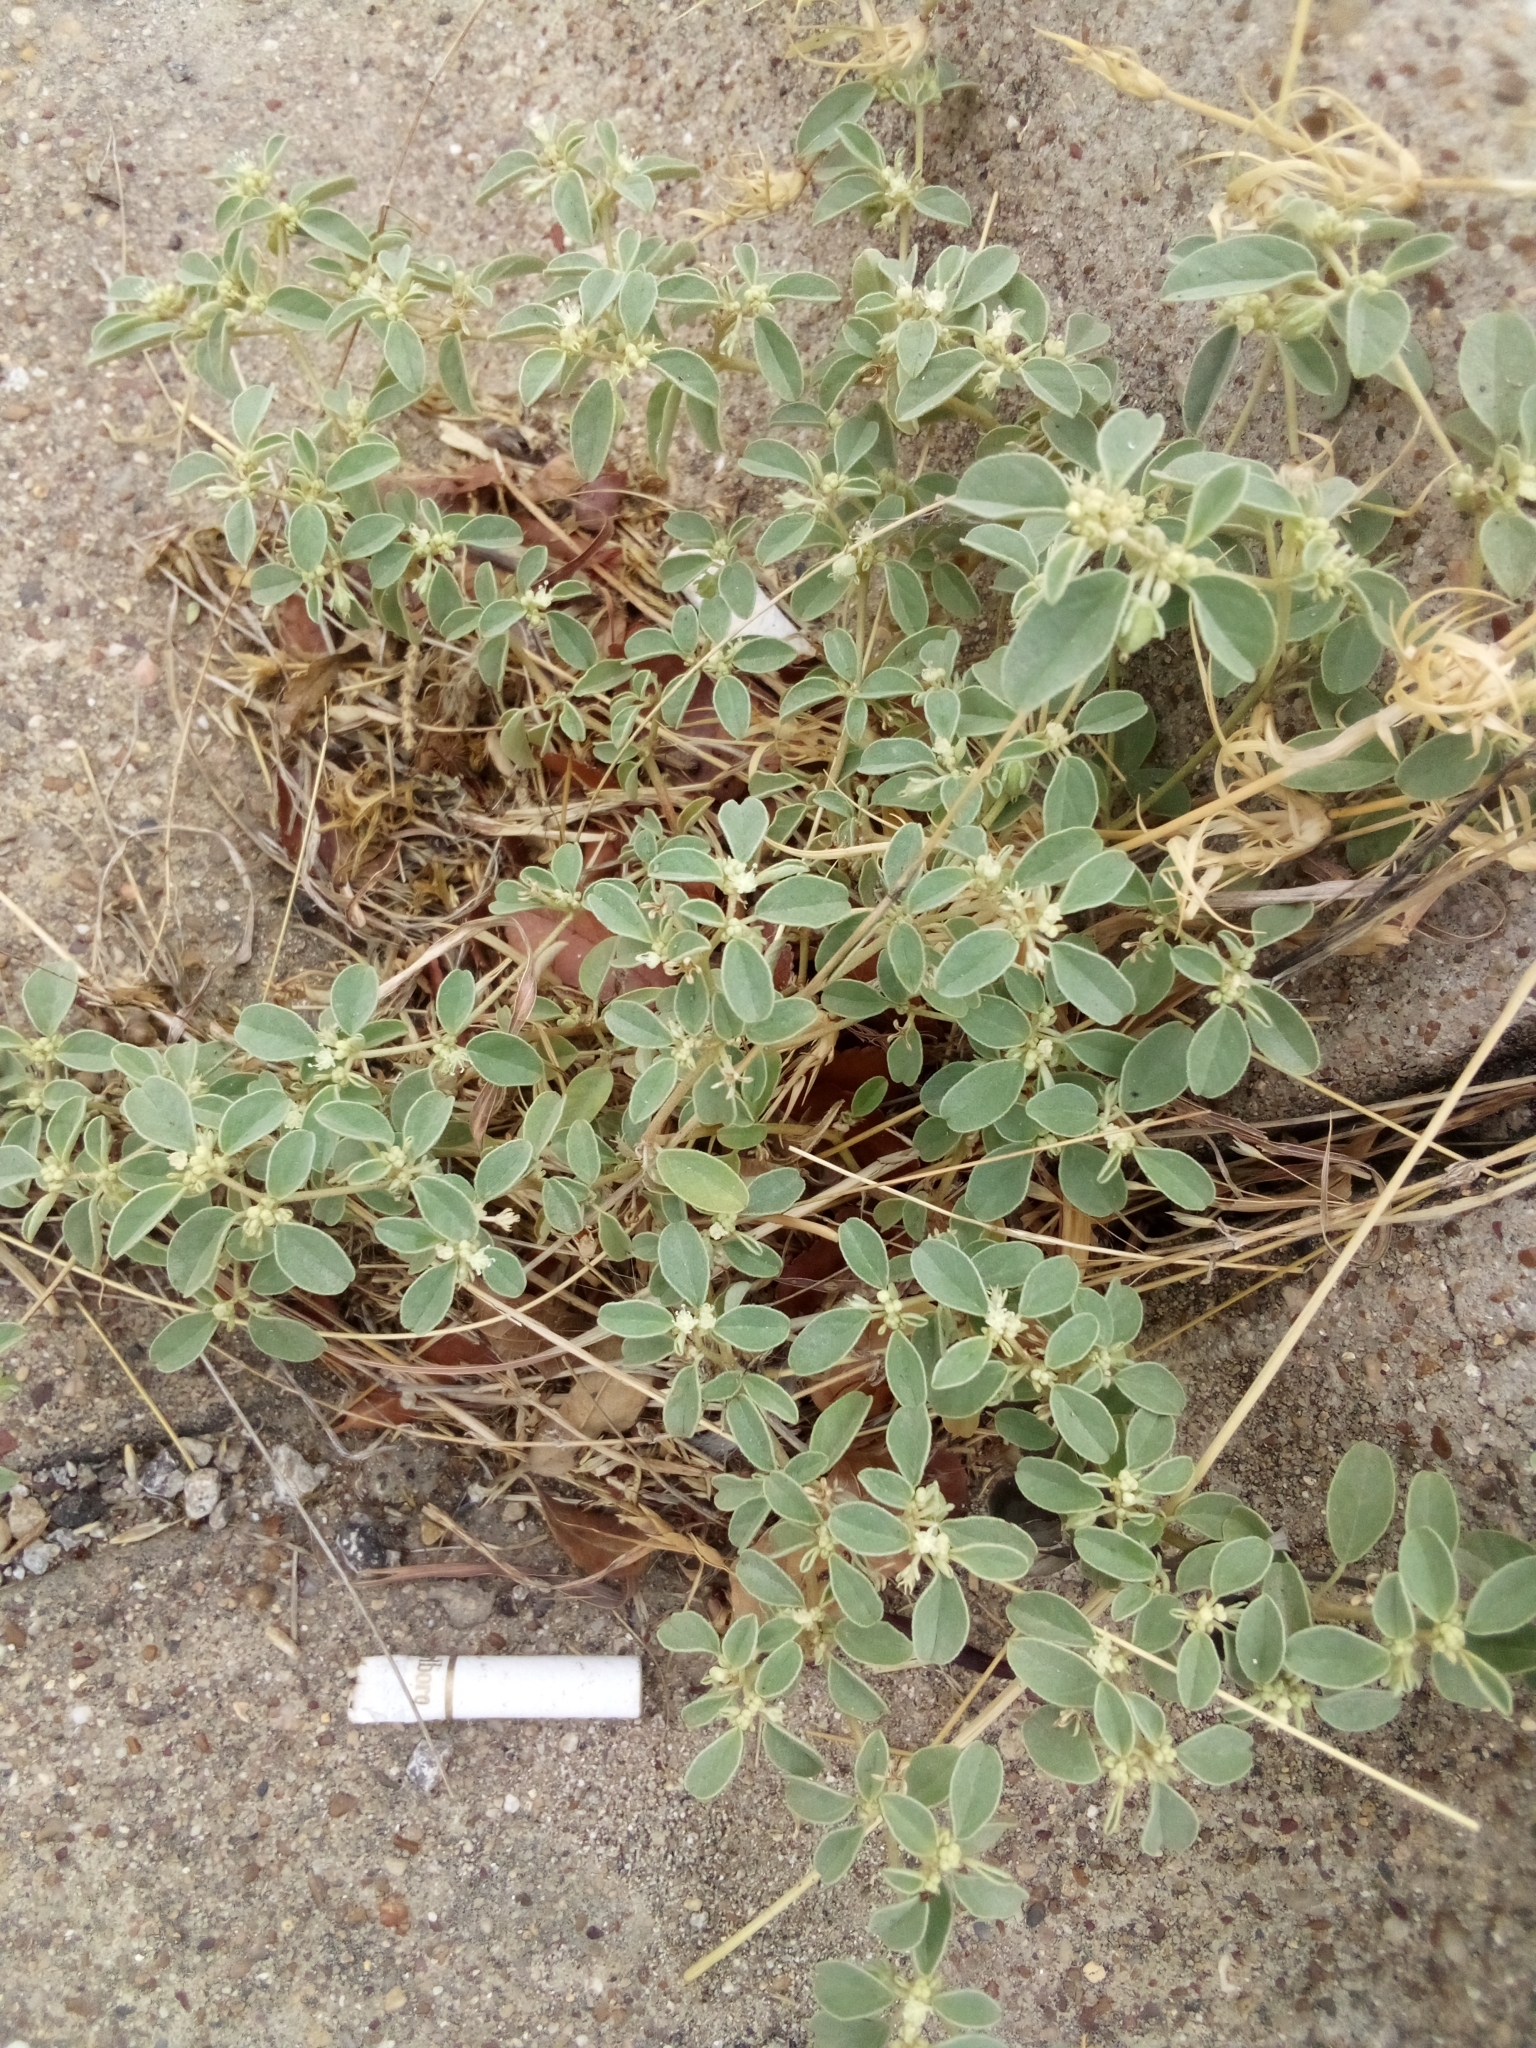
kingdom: Plantae
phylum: Tracheophyta
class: Magnoliopsida
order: Malpighiales
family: Euphorbiaceae
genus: Croton
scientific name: Croton monanthogynus
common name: One-seed croton
